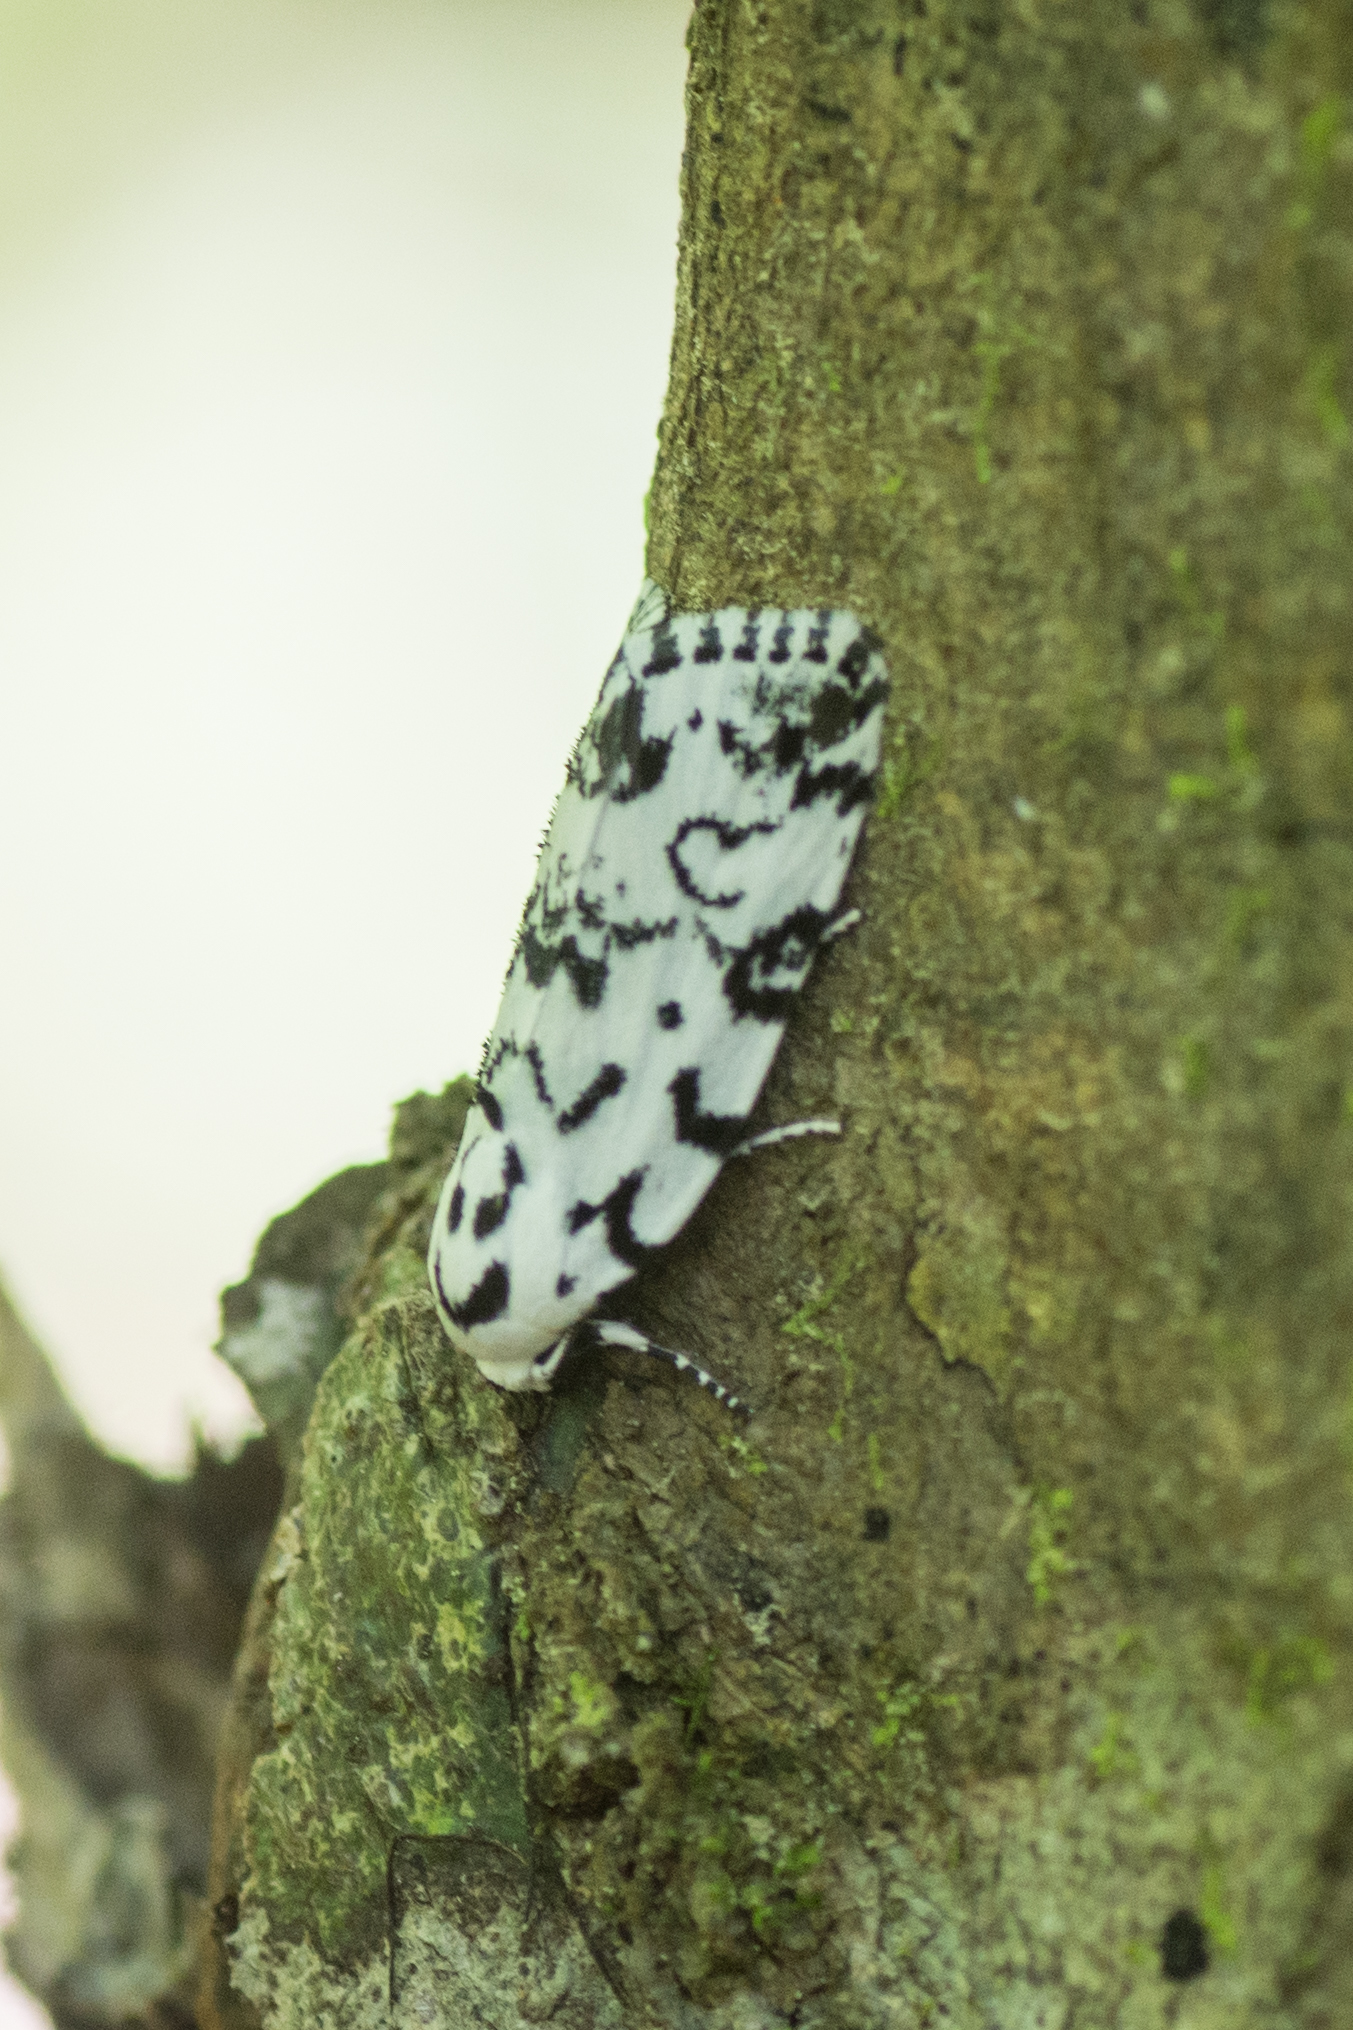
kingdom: Animalia
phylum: Arthropoda
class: Insecta
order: Lepidoptera
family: Noctuidae
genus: Polygrammate
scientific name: Polygrammate hebraeicum
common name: Hebrew moth
